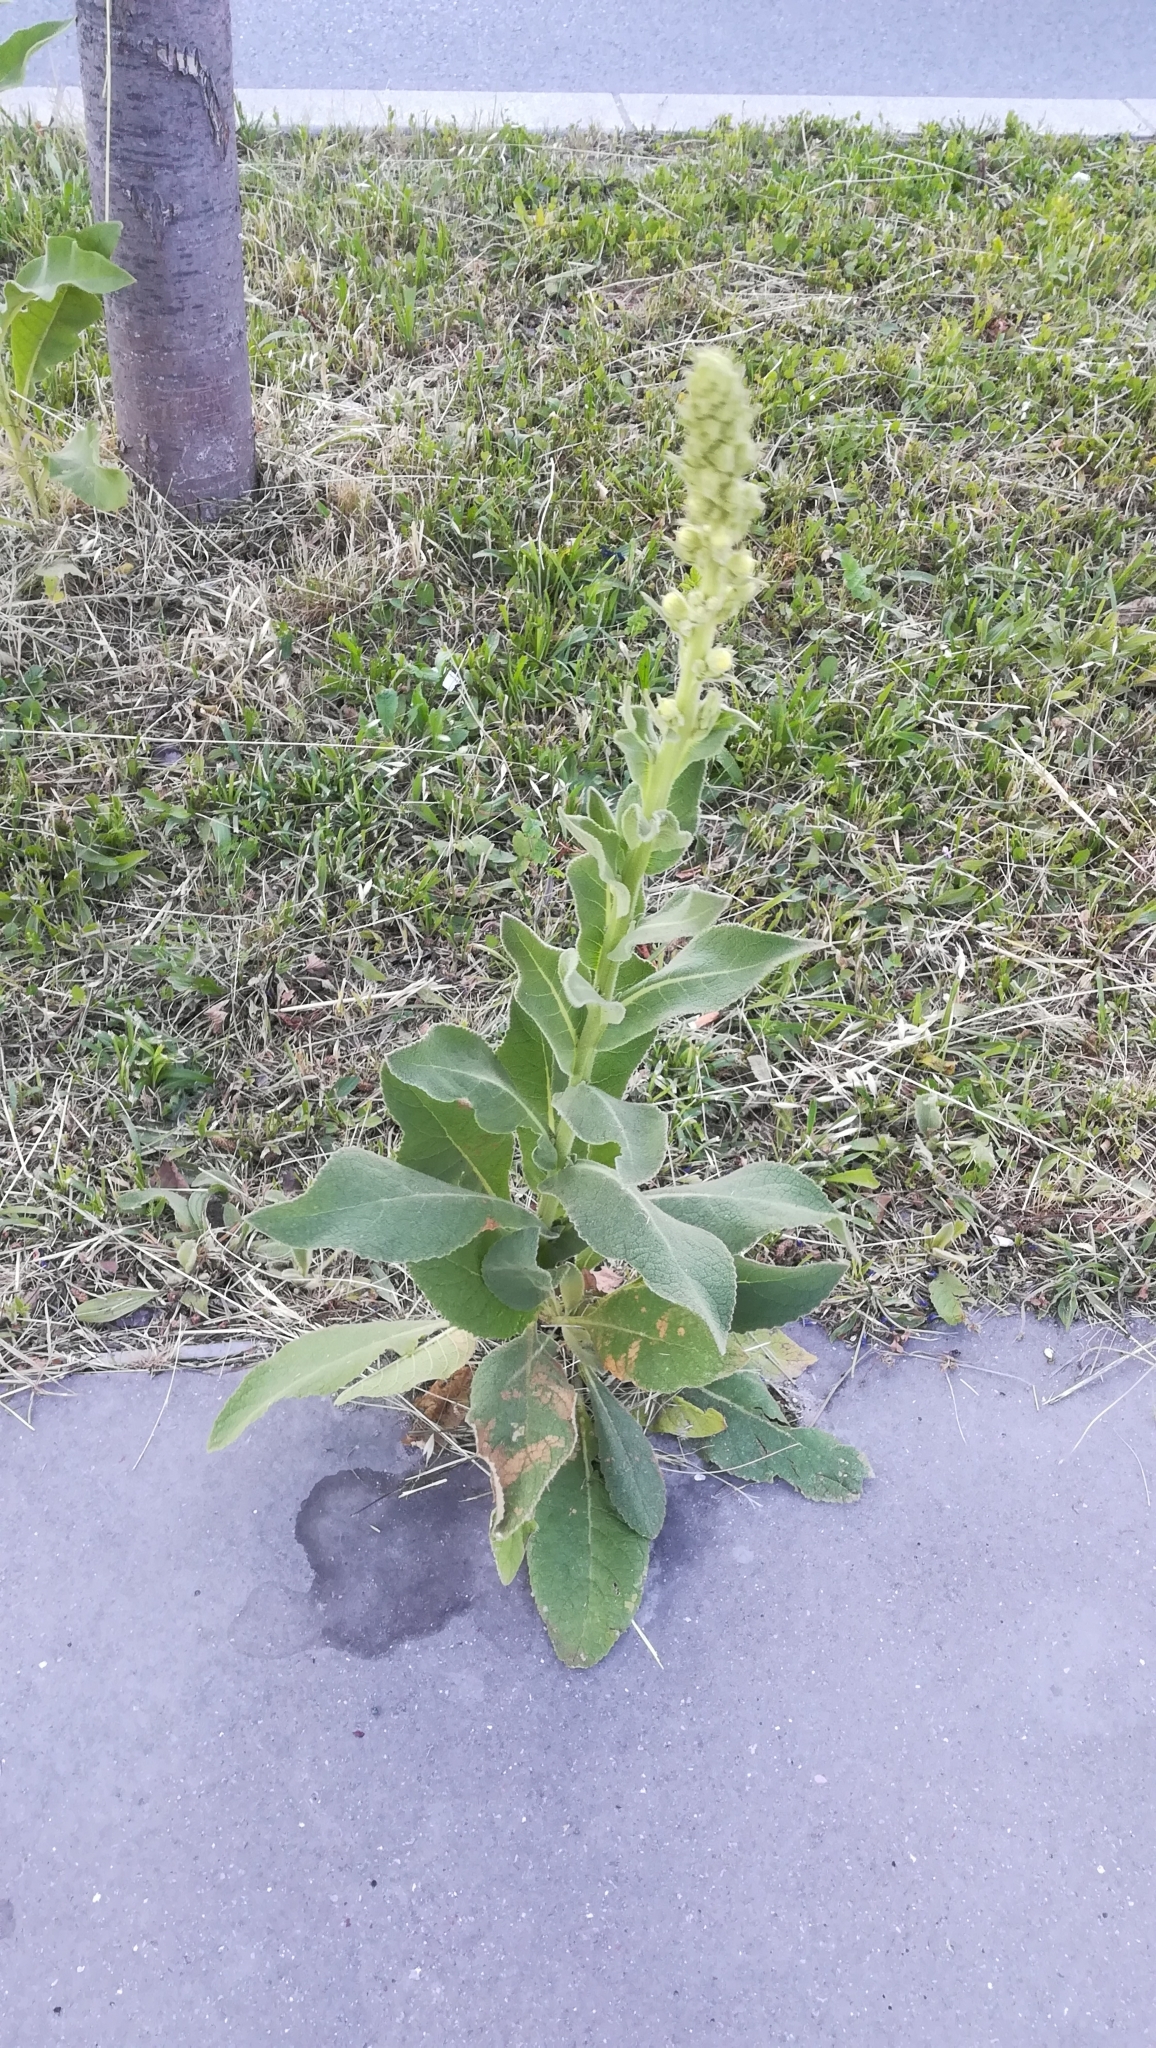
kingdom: Plantae
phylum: Tracheophyta
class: Magnoliopsida
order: Lamiales
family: Scrophulariaceae
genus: Verbascum
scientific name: Verbascum phlomoides
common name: Orange mullein
